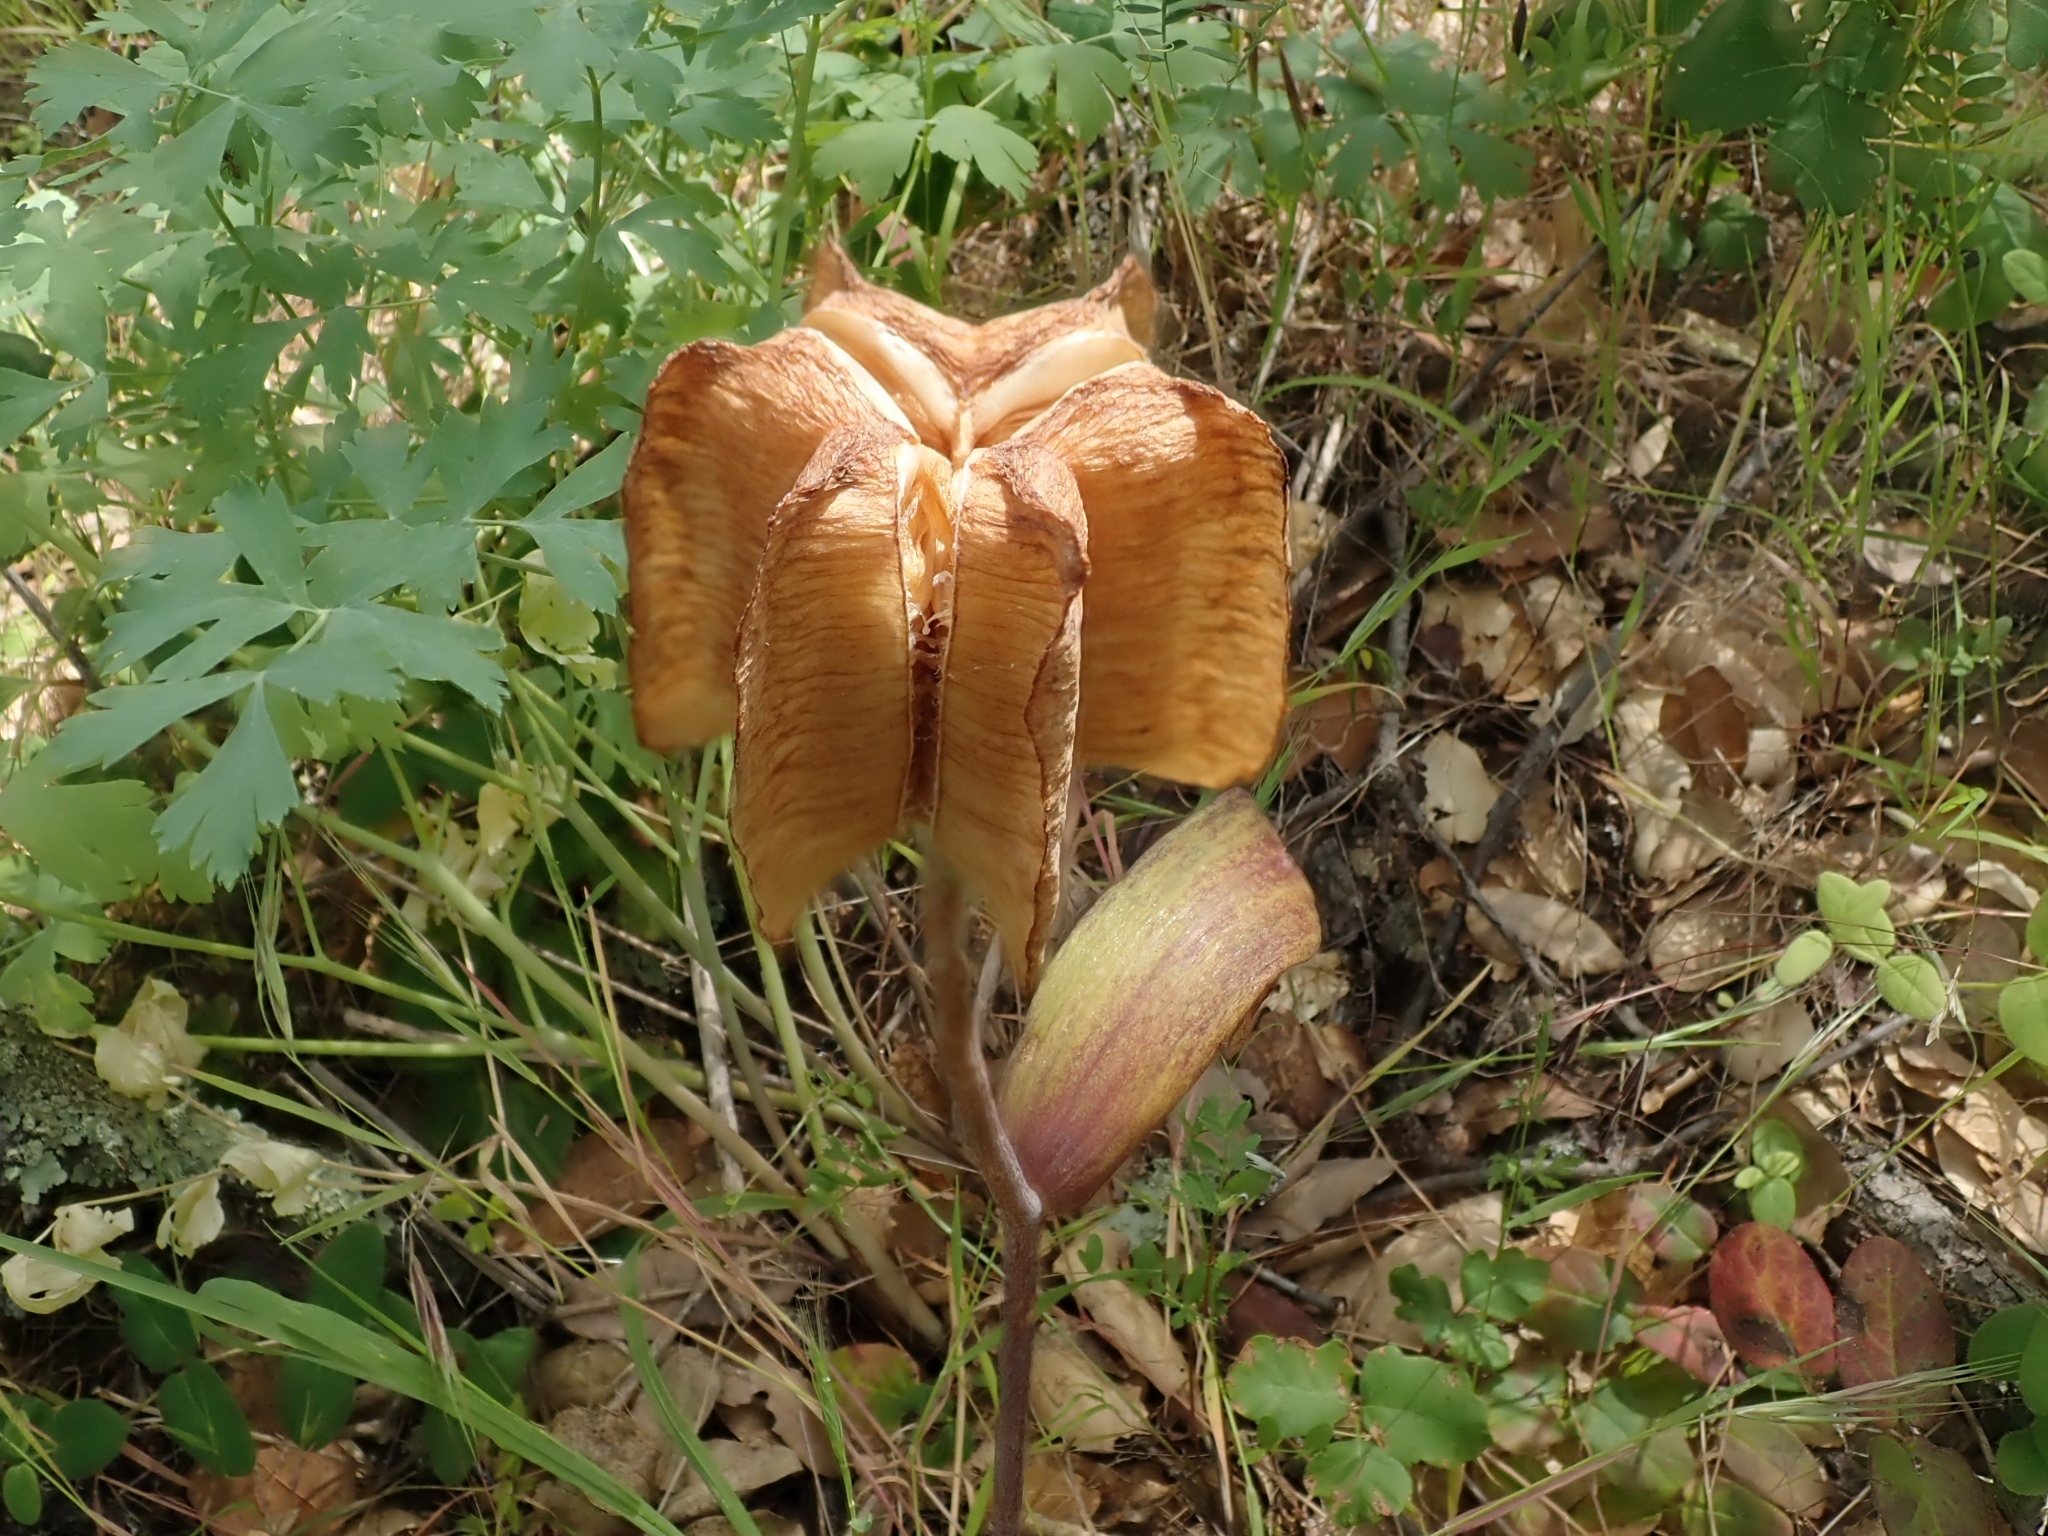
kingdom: Plantae
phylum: Tracheophyta
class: Liliopsida
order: Liliales
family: Liliaceae
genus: Fritillaria
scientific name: Fritillaria recurva
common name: Scarlet fritillary
